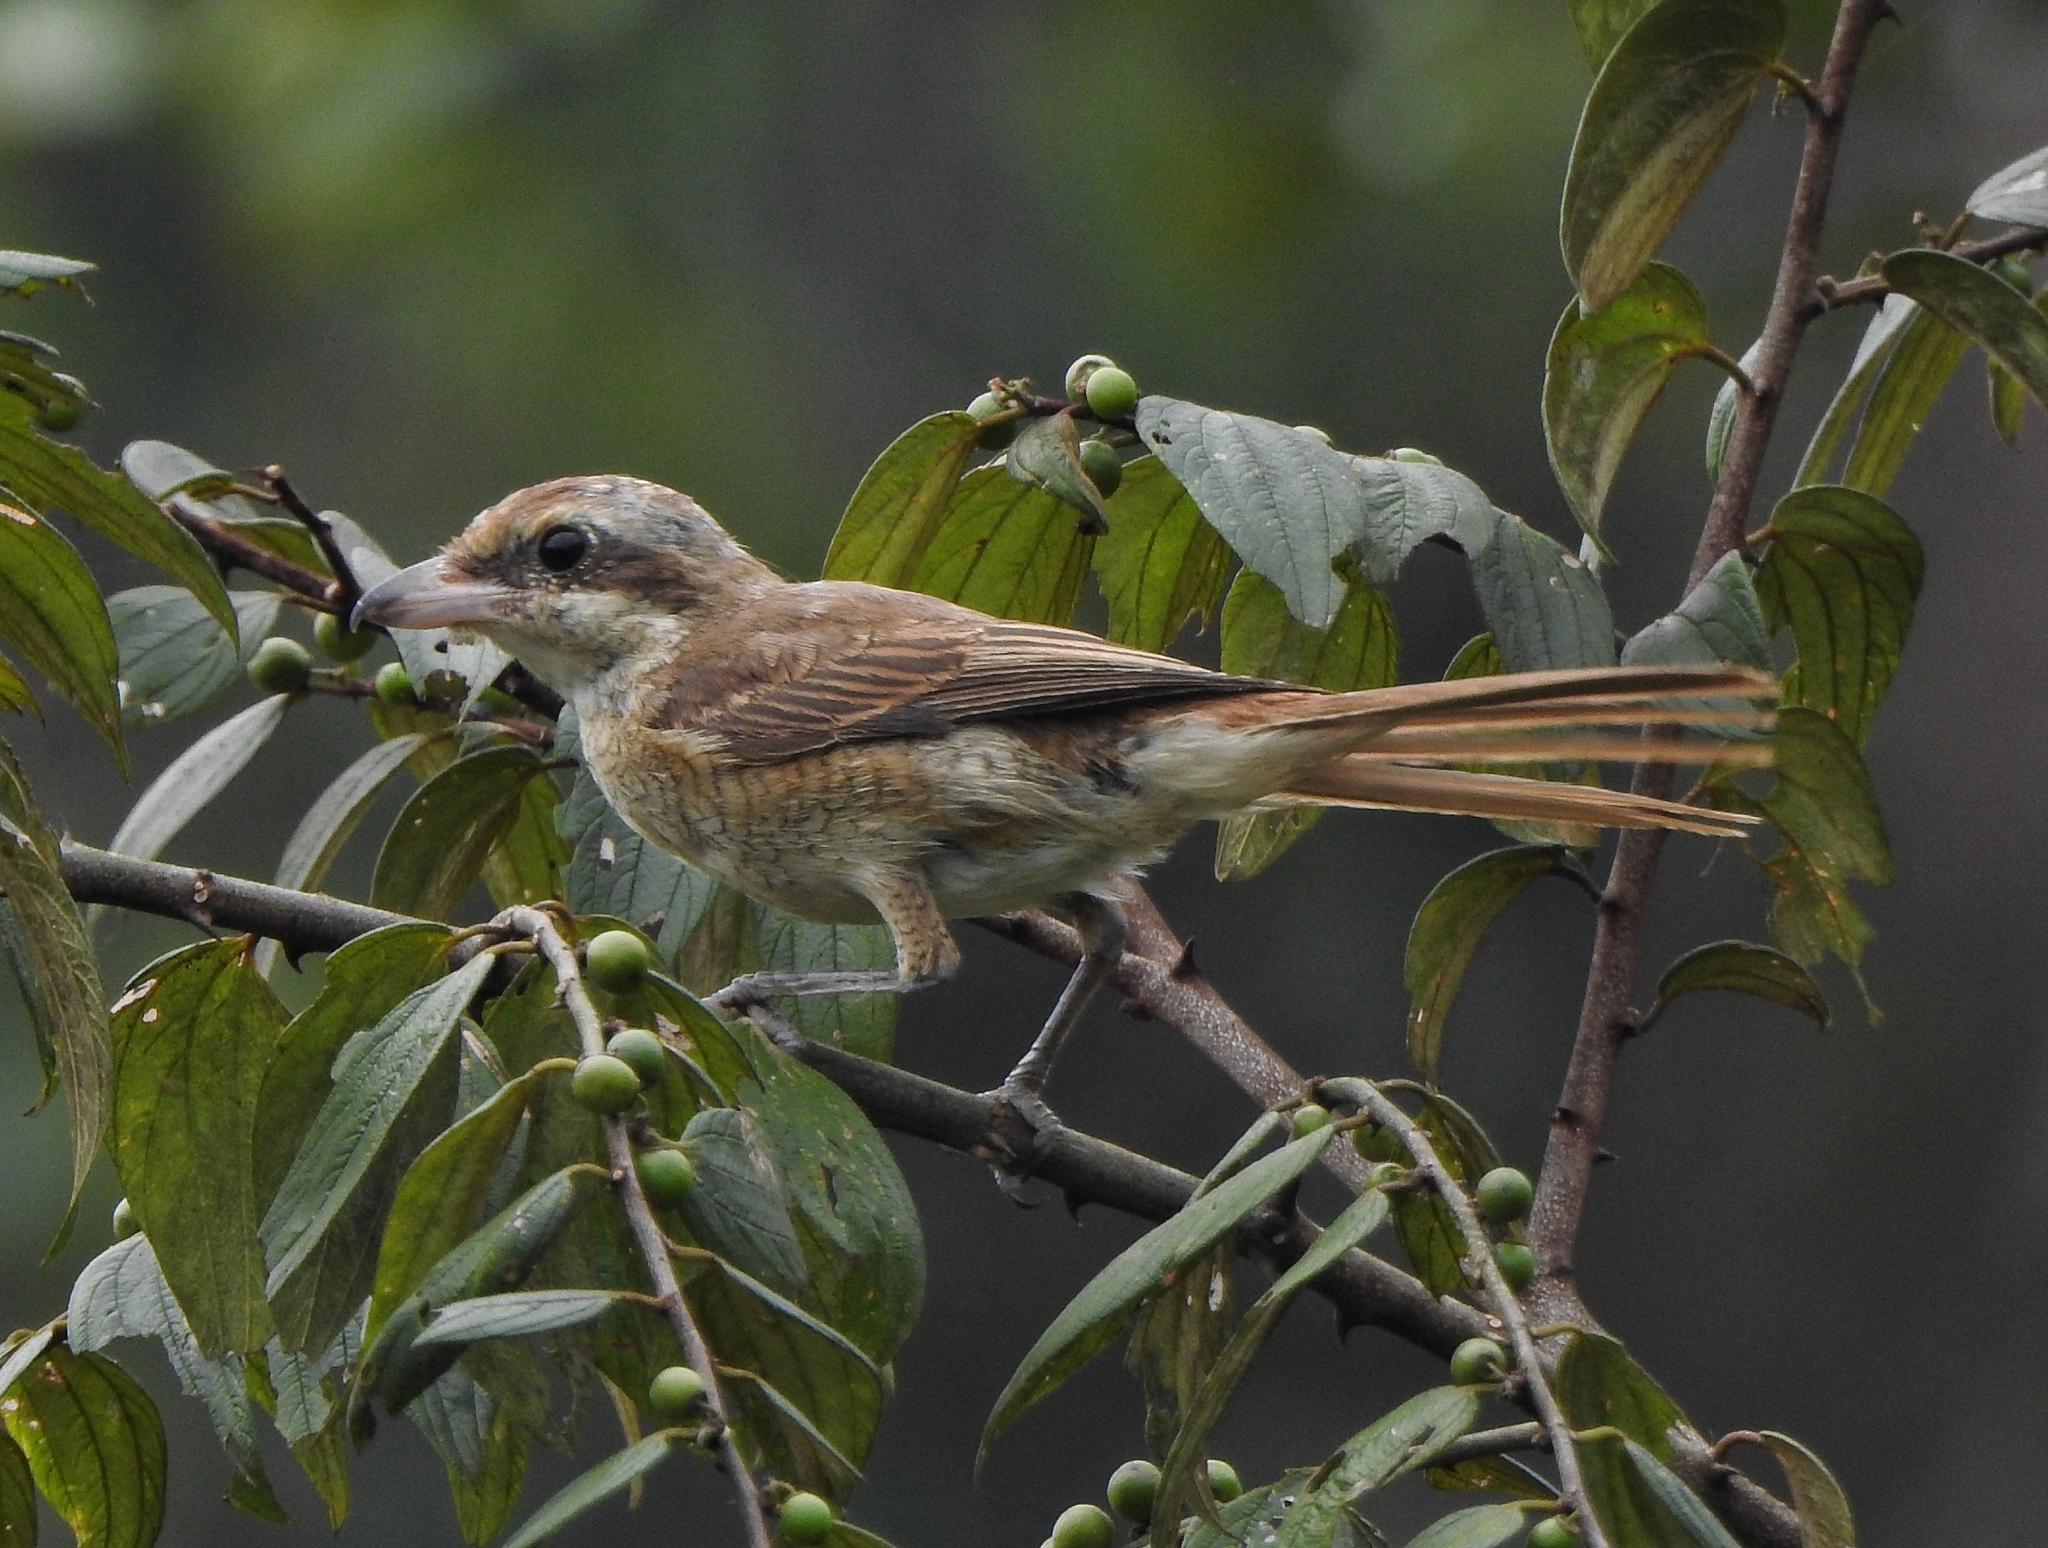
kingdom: Animalia
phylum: Chordata
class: Aves
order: Passeriformes
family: Laniidae
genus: Lanius
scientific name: Lanius cristatus
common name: Brown shrike
